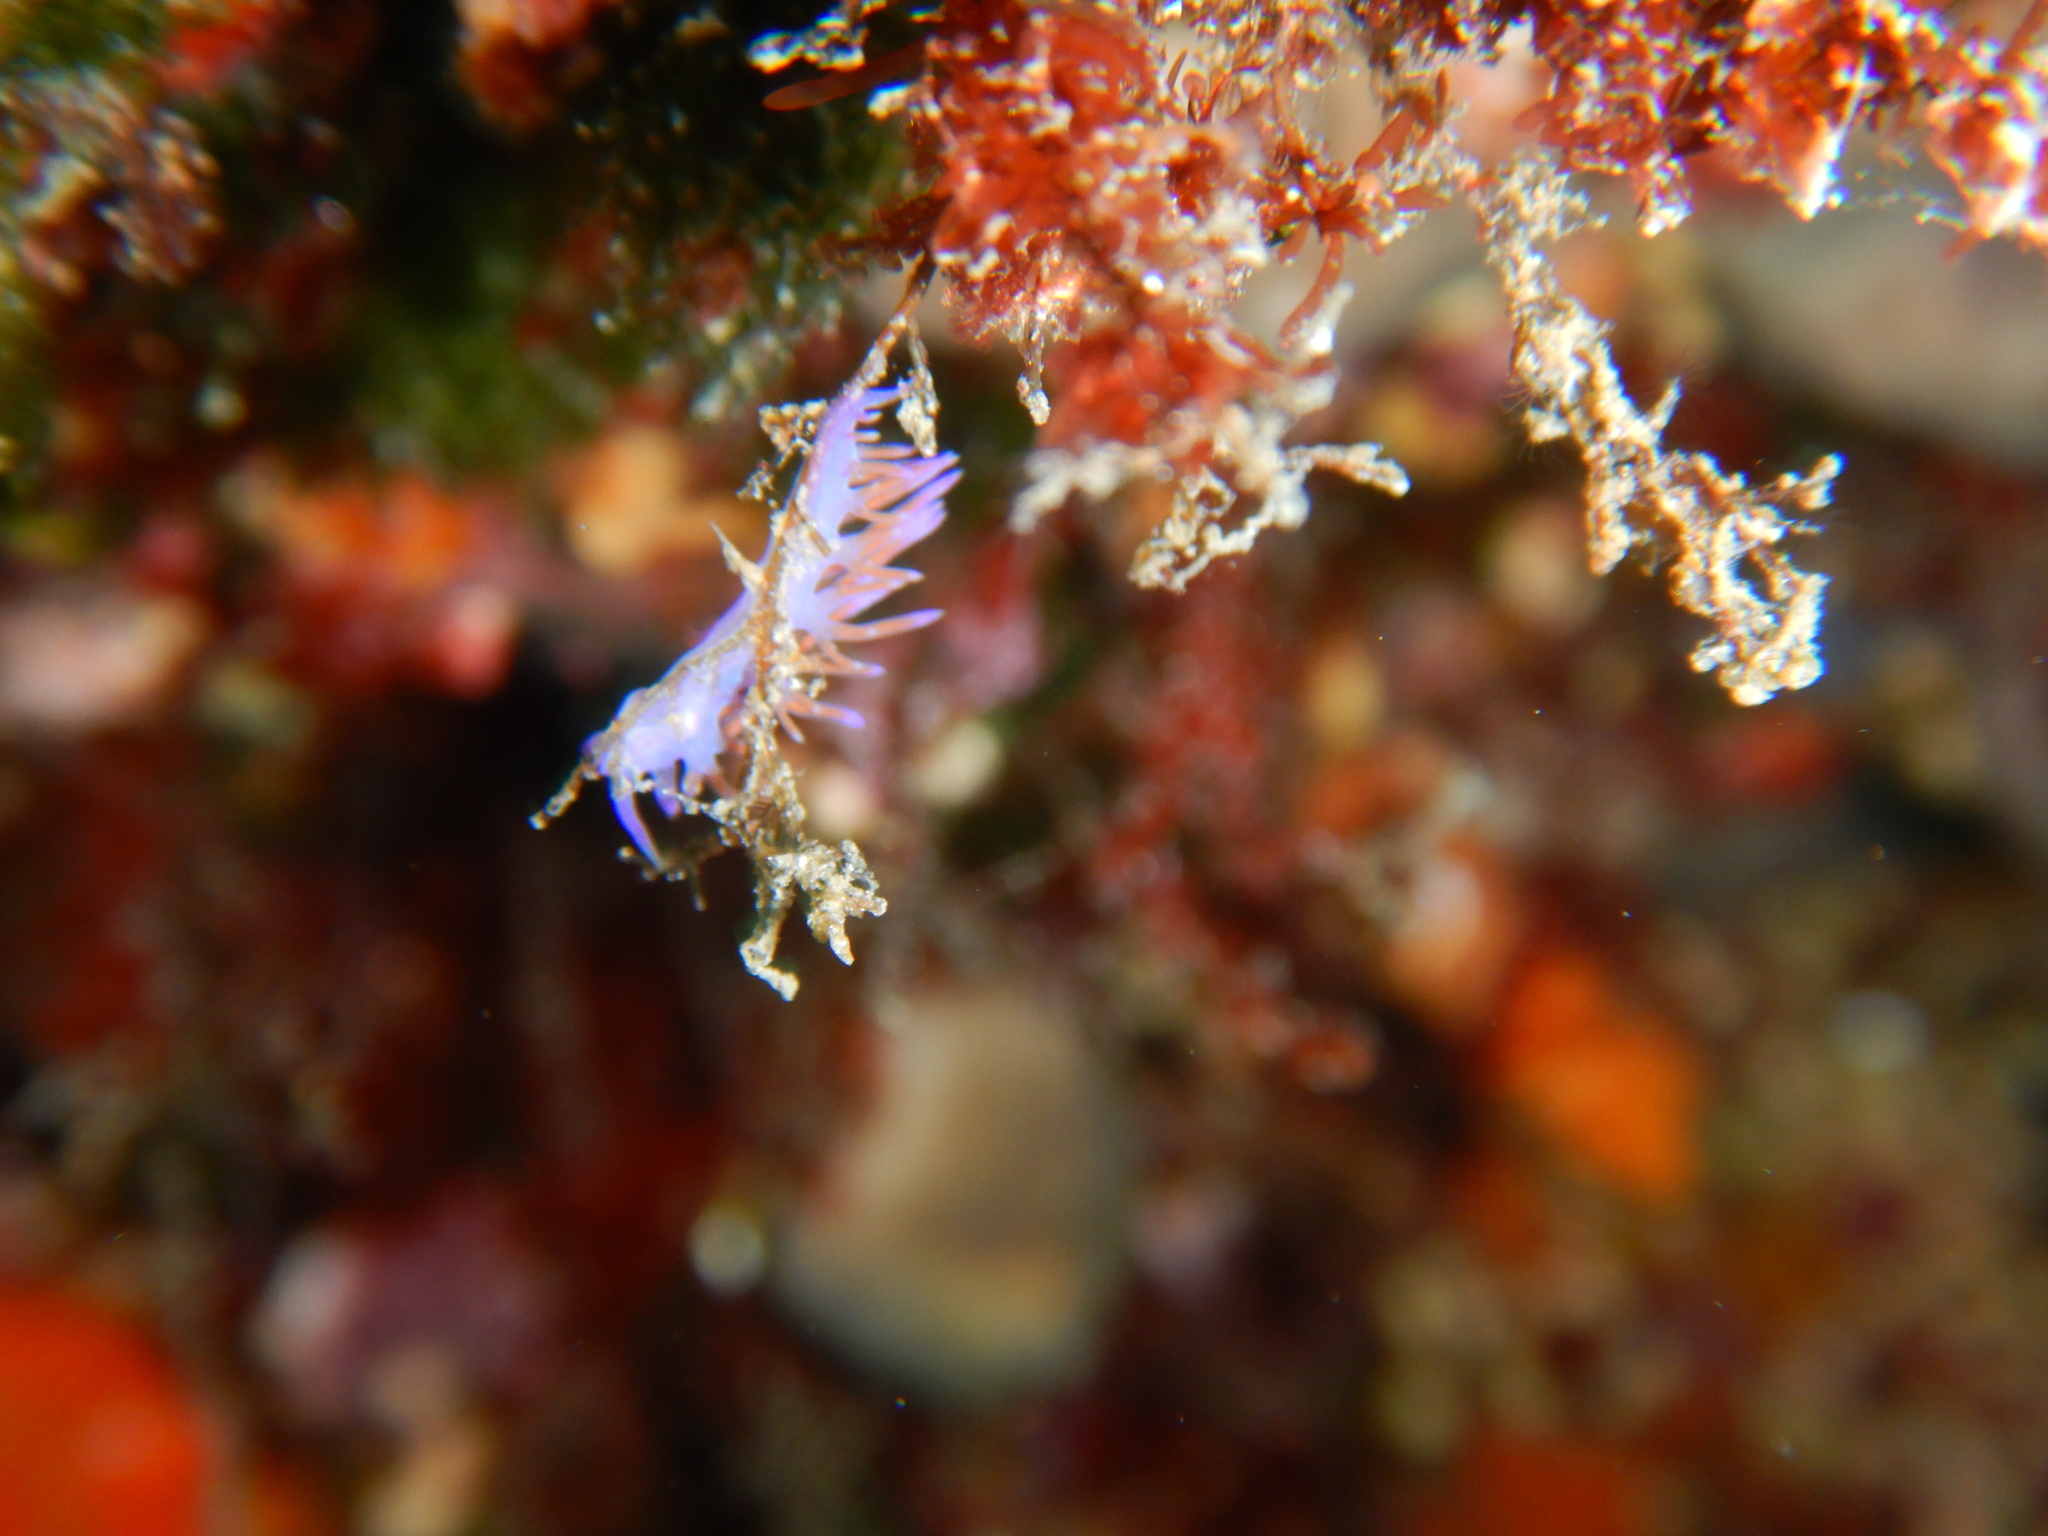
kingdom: Animalia
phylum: Mollusca
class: Gastropoda
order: Nudibranchia
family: Flabellinidae
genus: Flabellina
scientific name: Flabellina affinis
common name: Mediterranean violet aeolid
